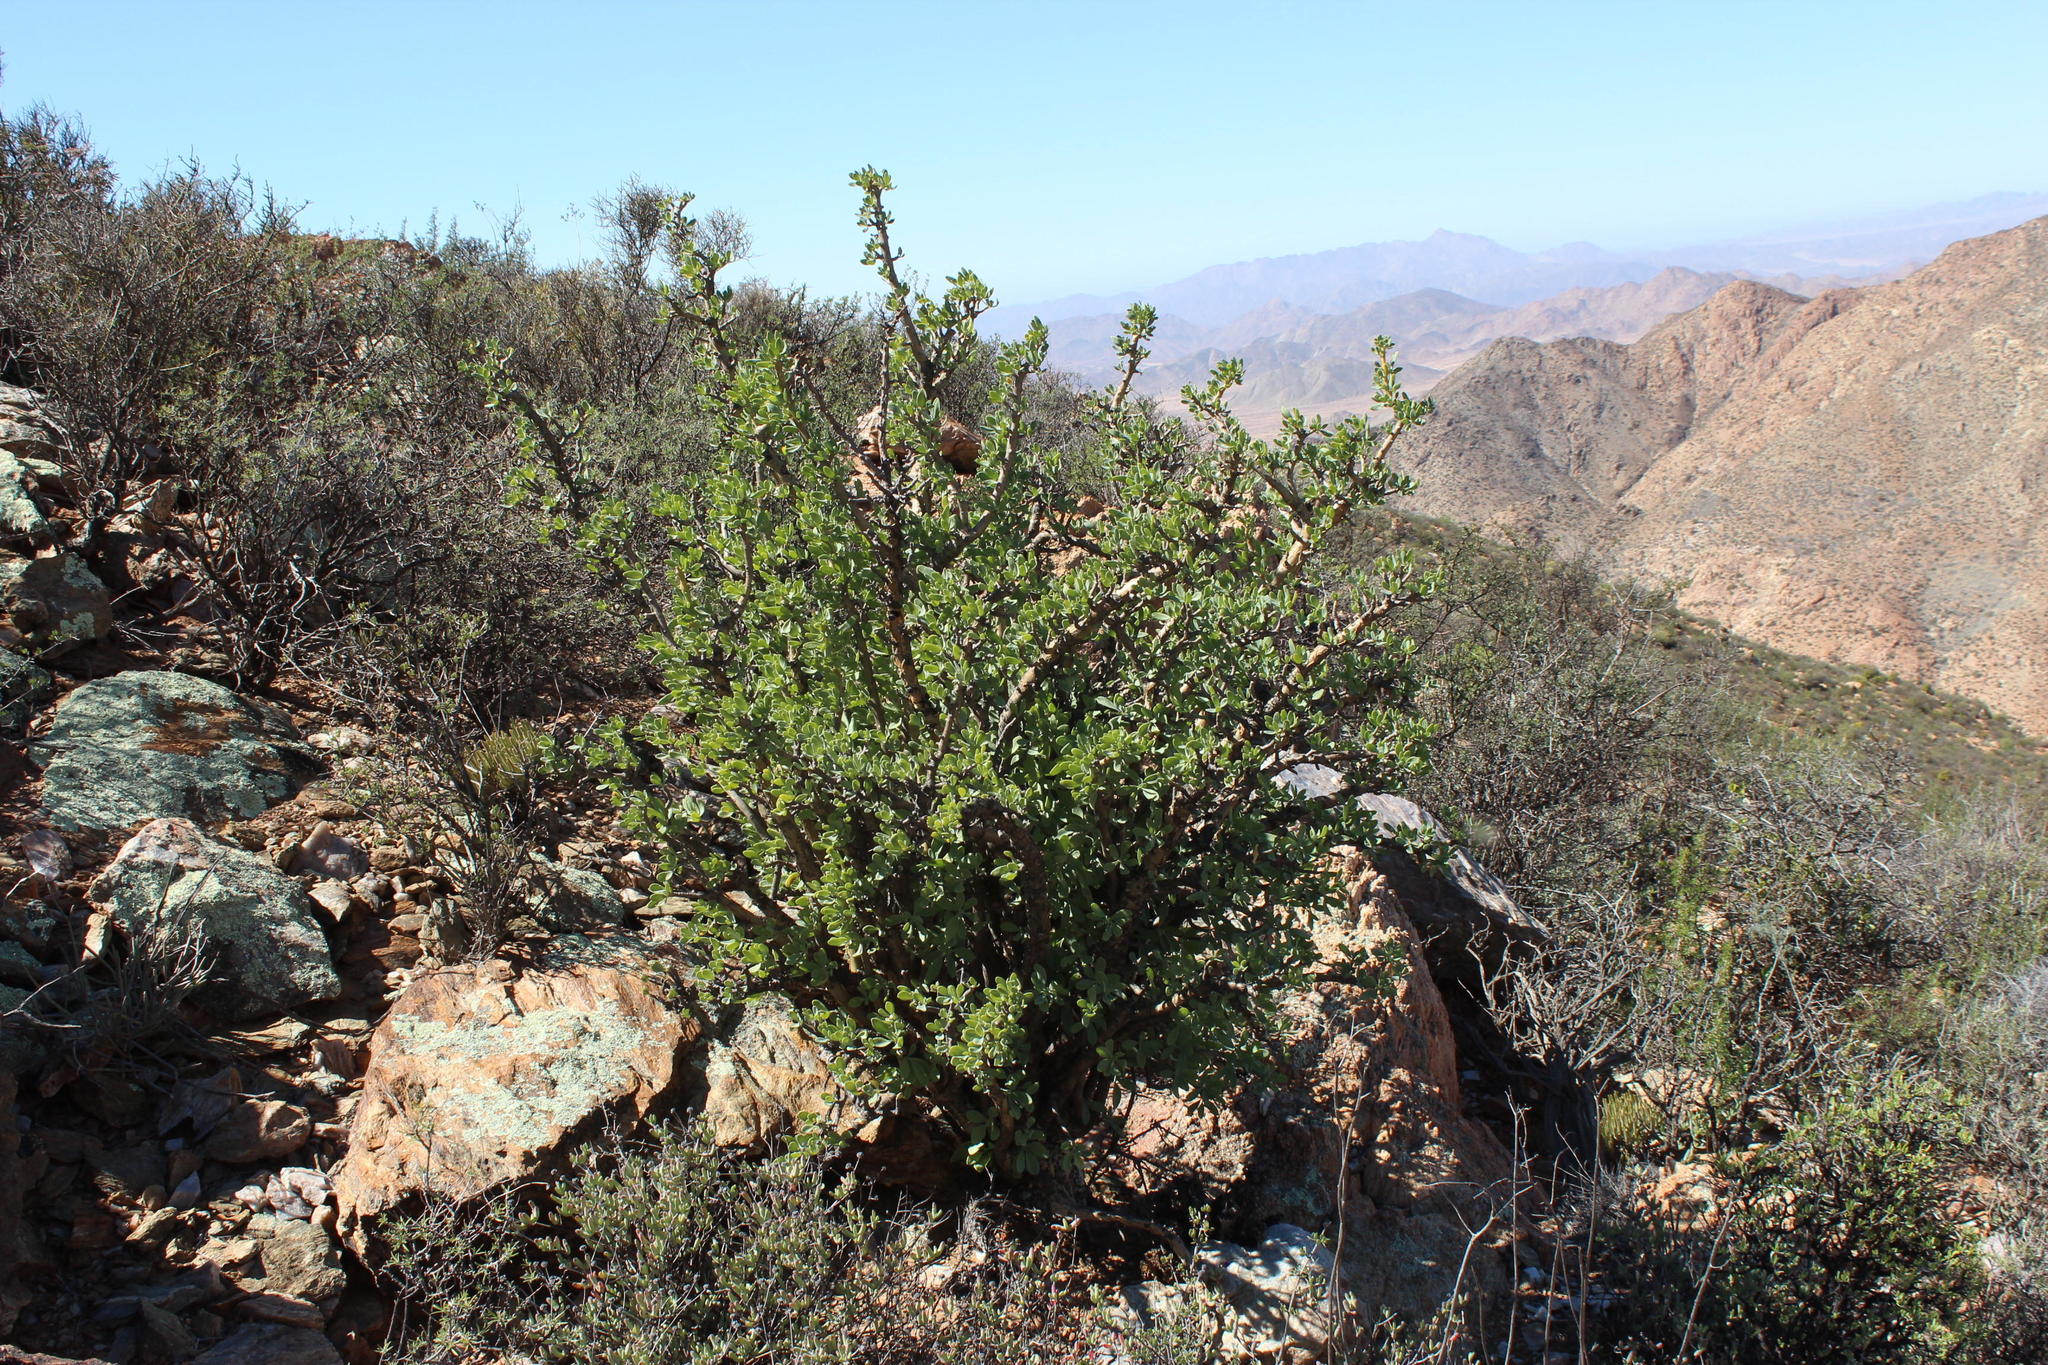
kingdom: Plantae
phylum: Tracheophyta
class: Magnoliopsida
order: Asterales
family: Asteraceae
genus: Othonna
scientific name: Othonna cerarioides
